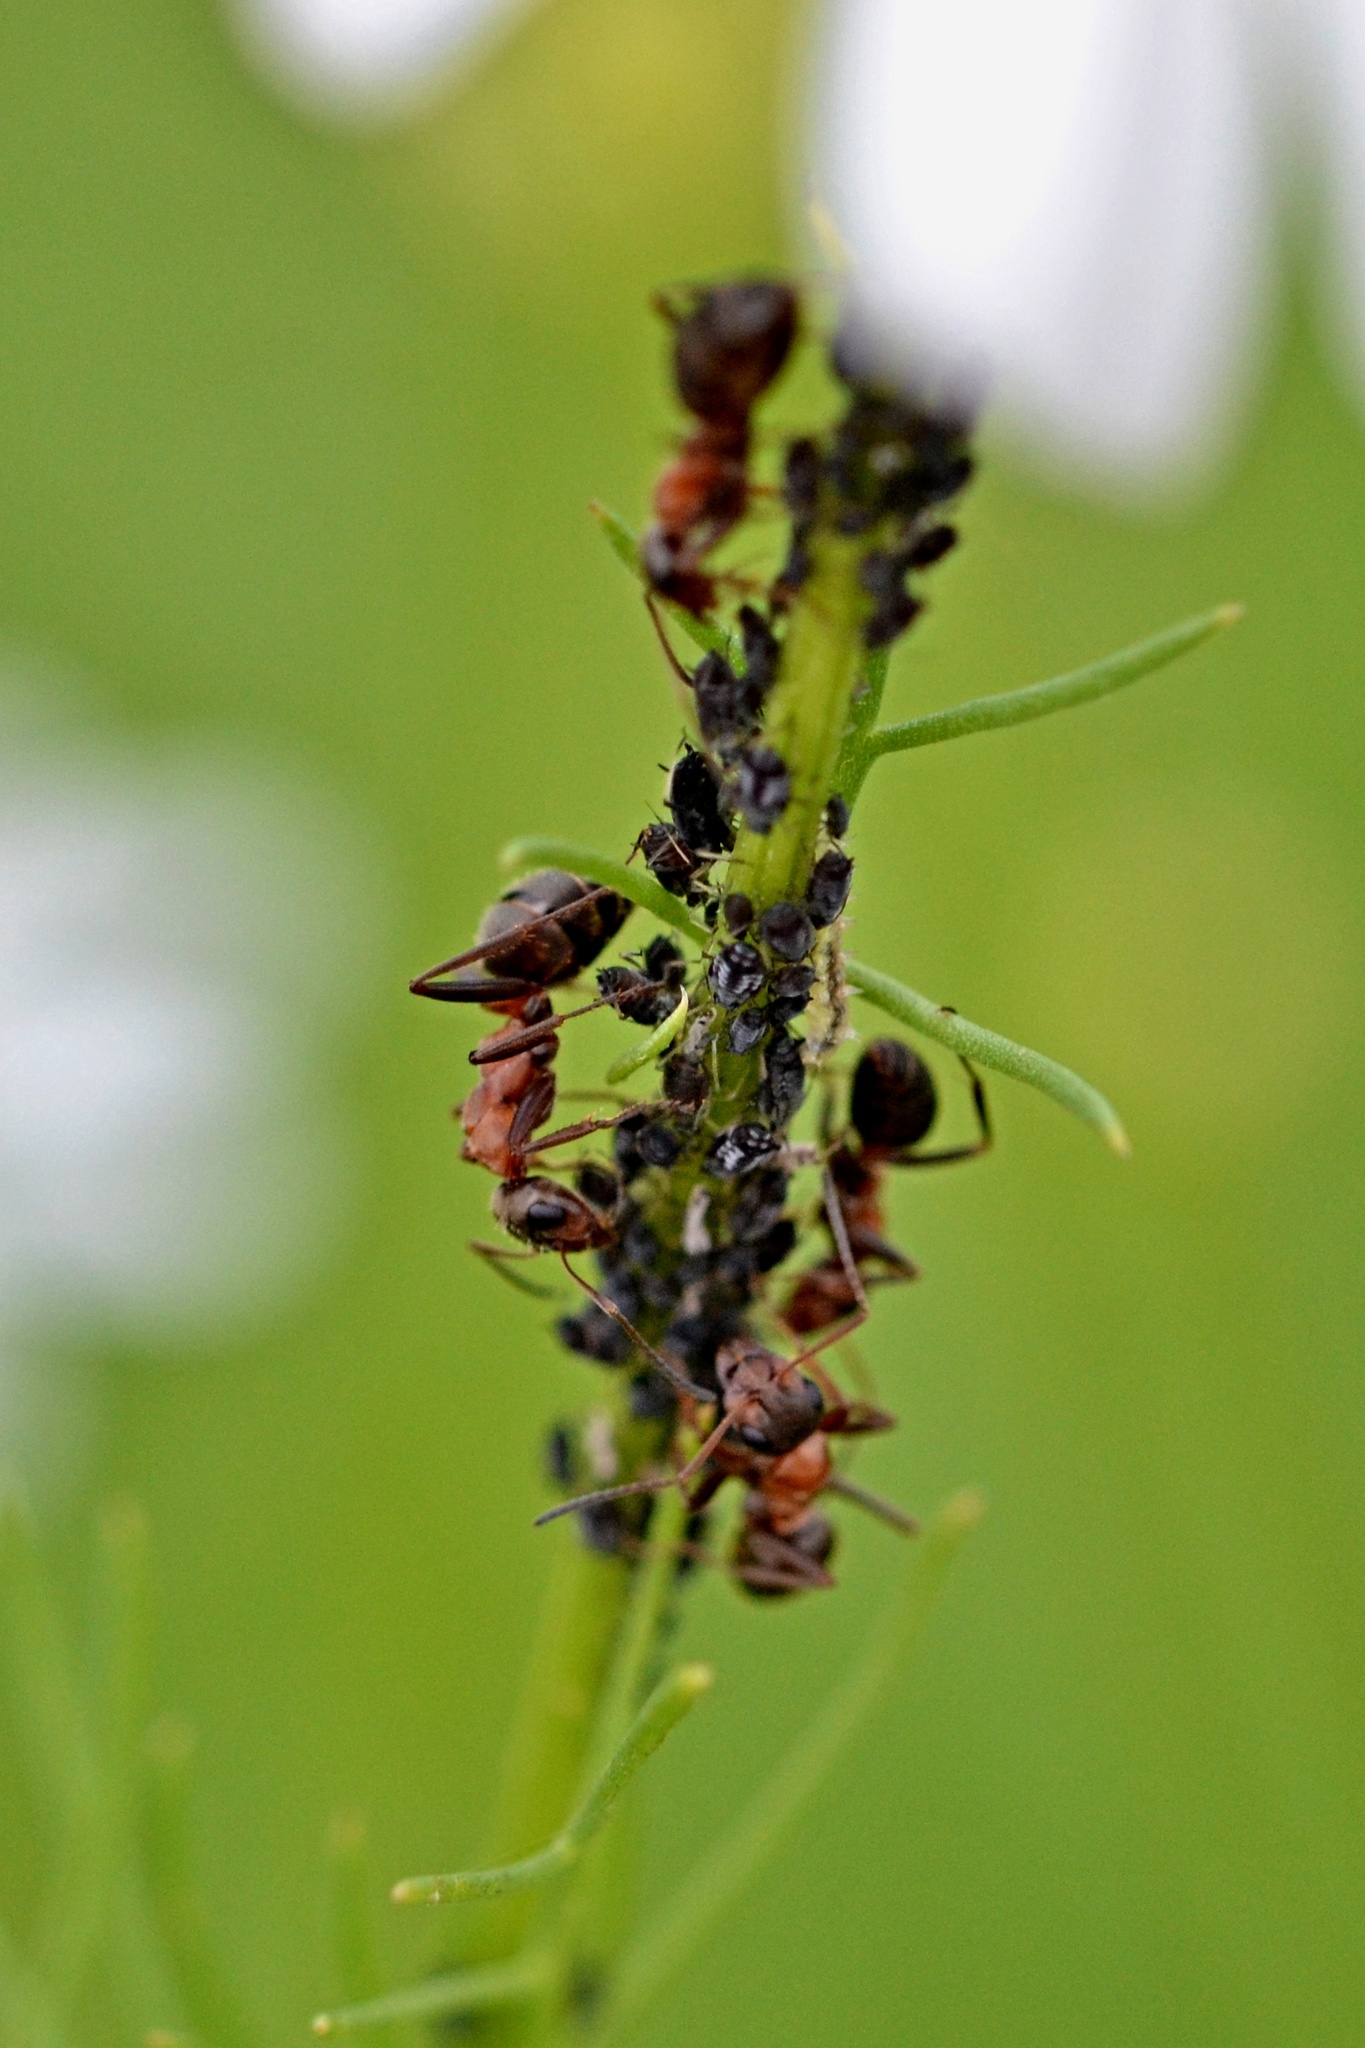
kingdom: Animalia
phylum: Arthropoda
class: Insecta
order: Hymenoptera
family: Formicidae
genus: Formica
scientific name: Formica rufibarbis
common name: Red barbed ant
